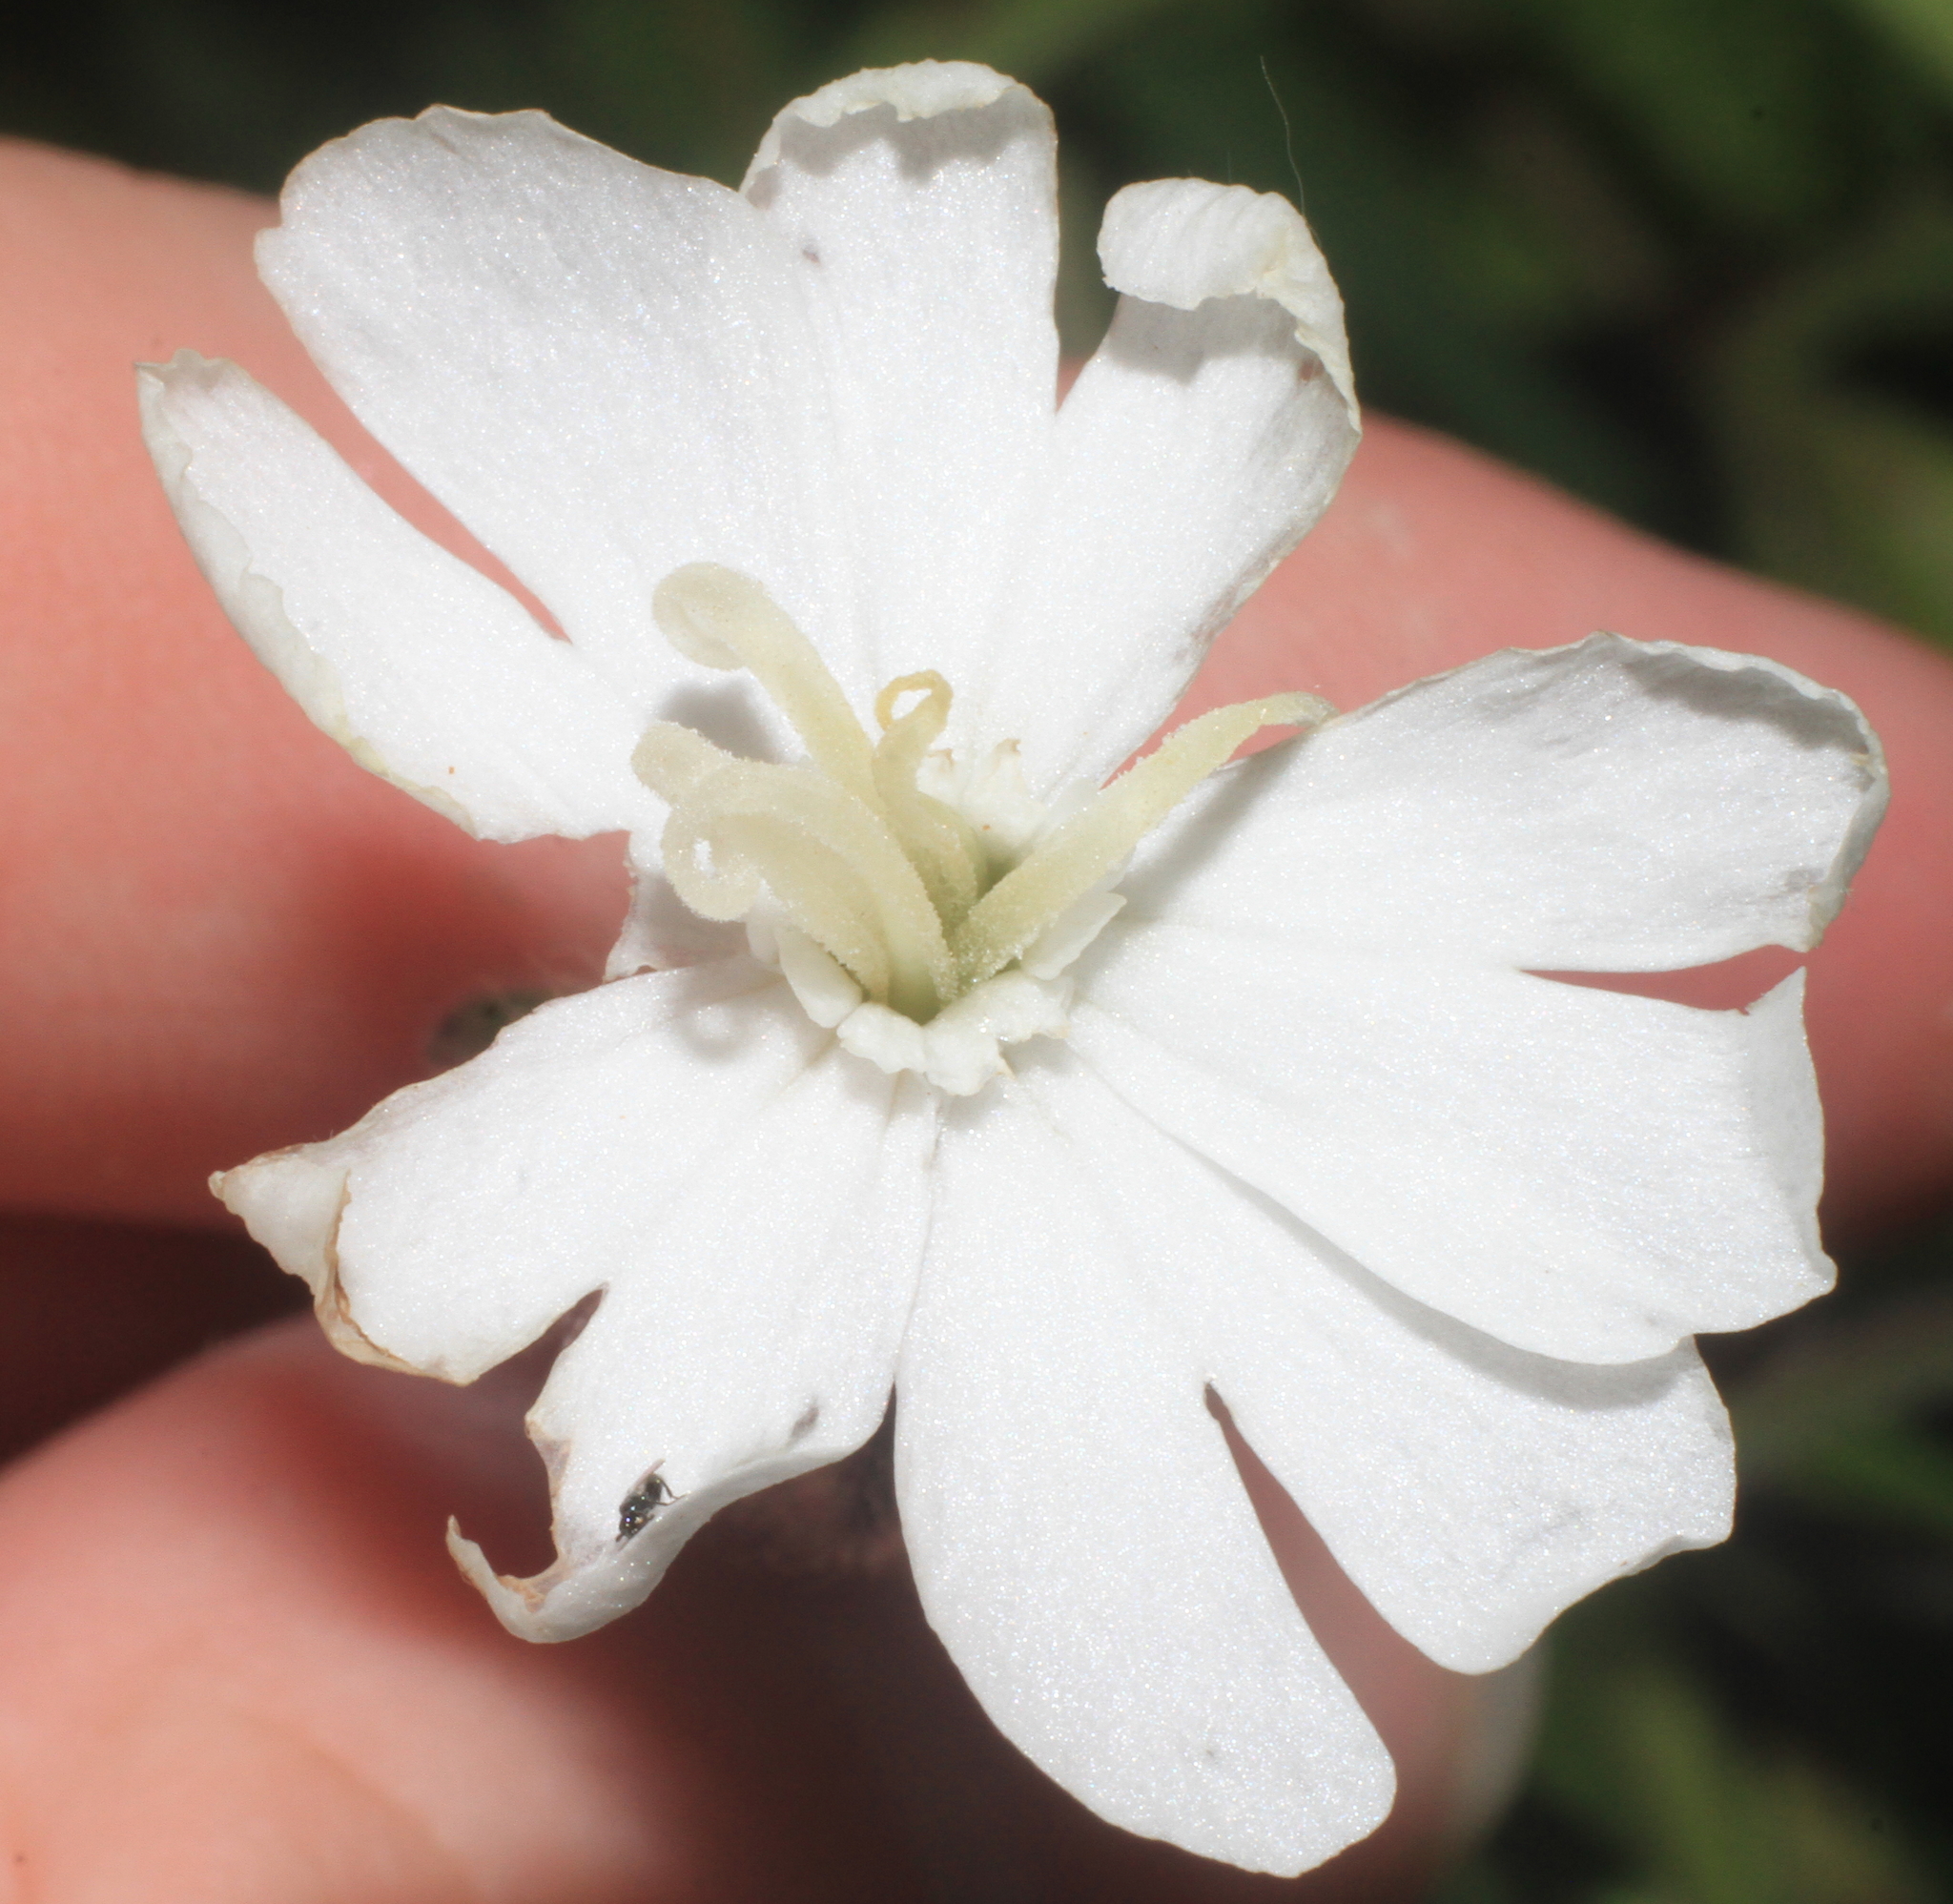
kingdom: Plantae
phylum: Tracheophyta
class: Magnoliopsida
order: Caryophyllales
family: Caryophyllaceae
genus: Silene
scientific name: Silene latifolia
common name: White campion
